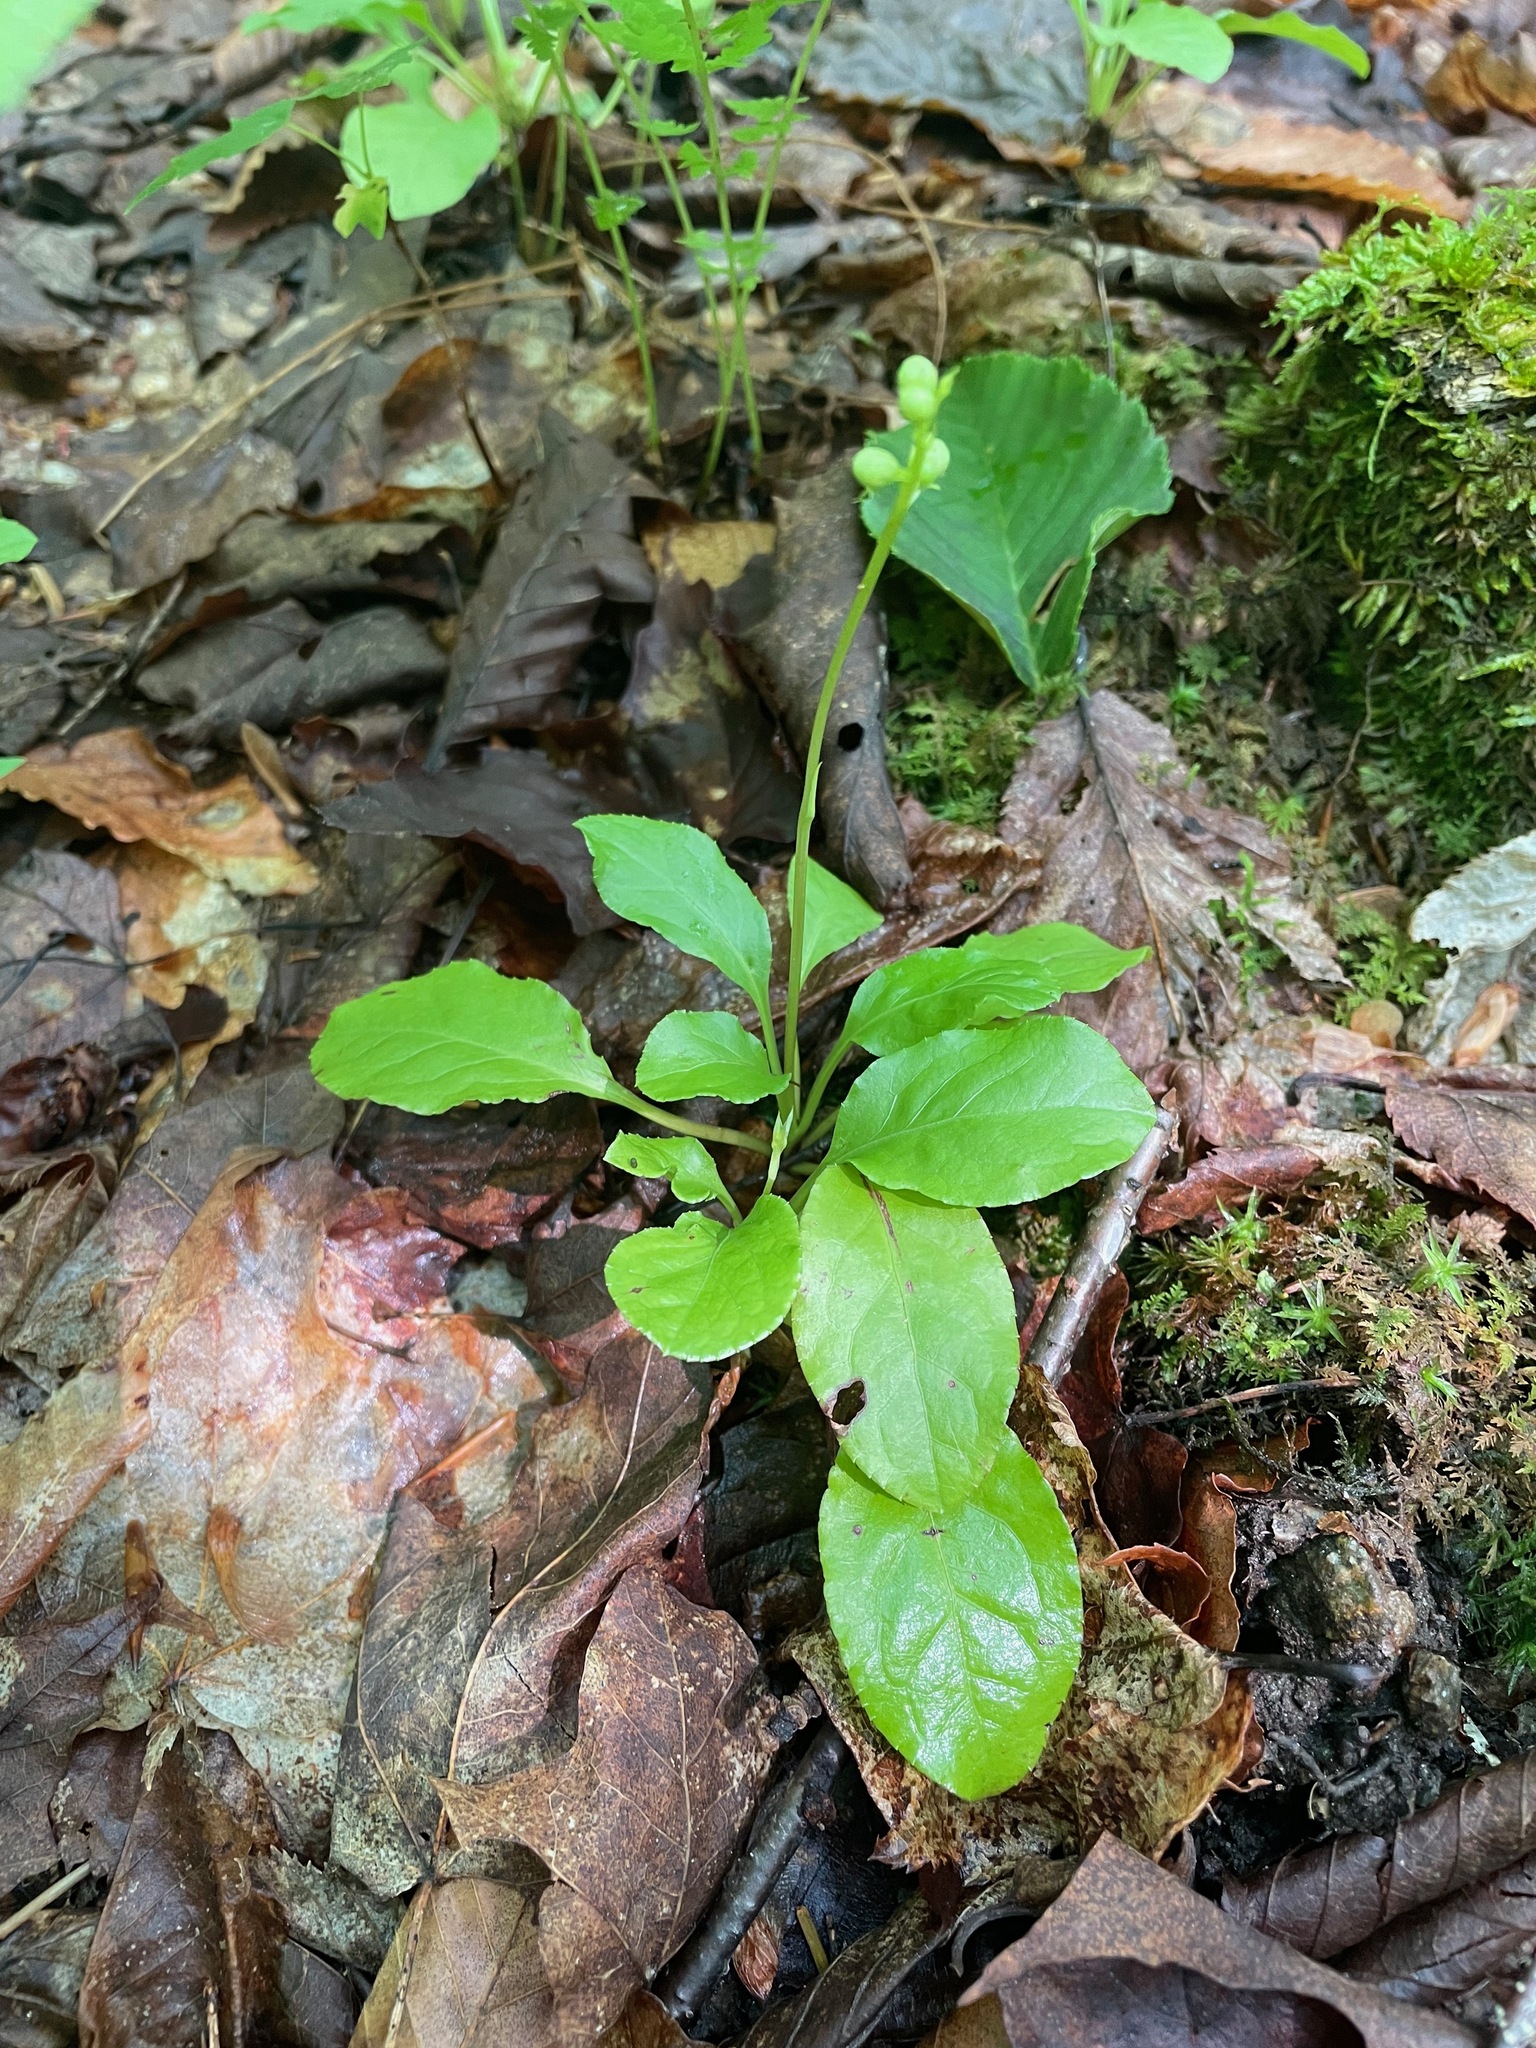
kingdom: Plantae
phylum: Tracheophyta
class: Magnoliopsida
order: Ericales
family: Ericaceae
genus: Pyrola
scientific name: Pyrola elliptica
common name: Shinleaf
